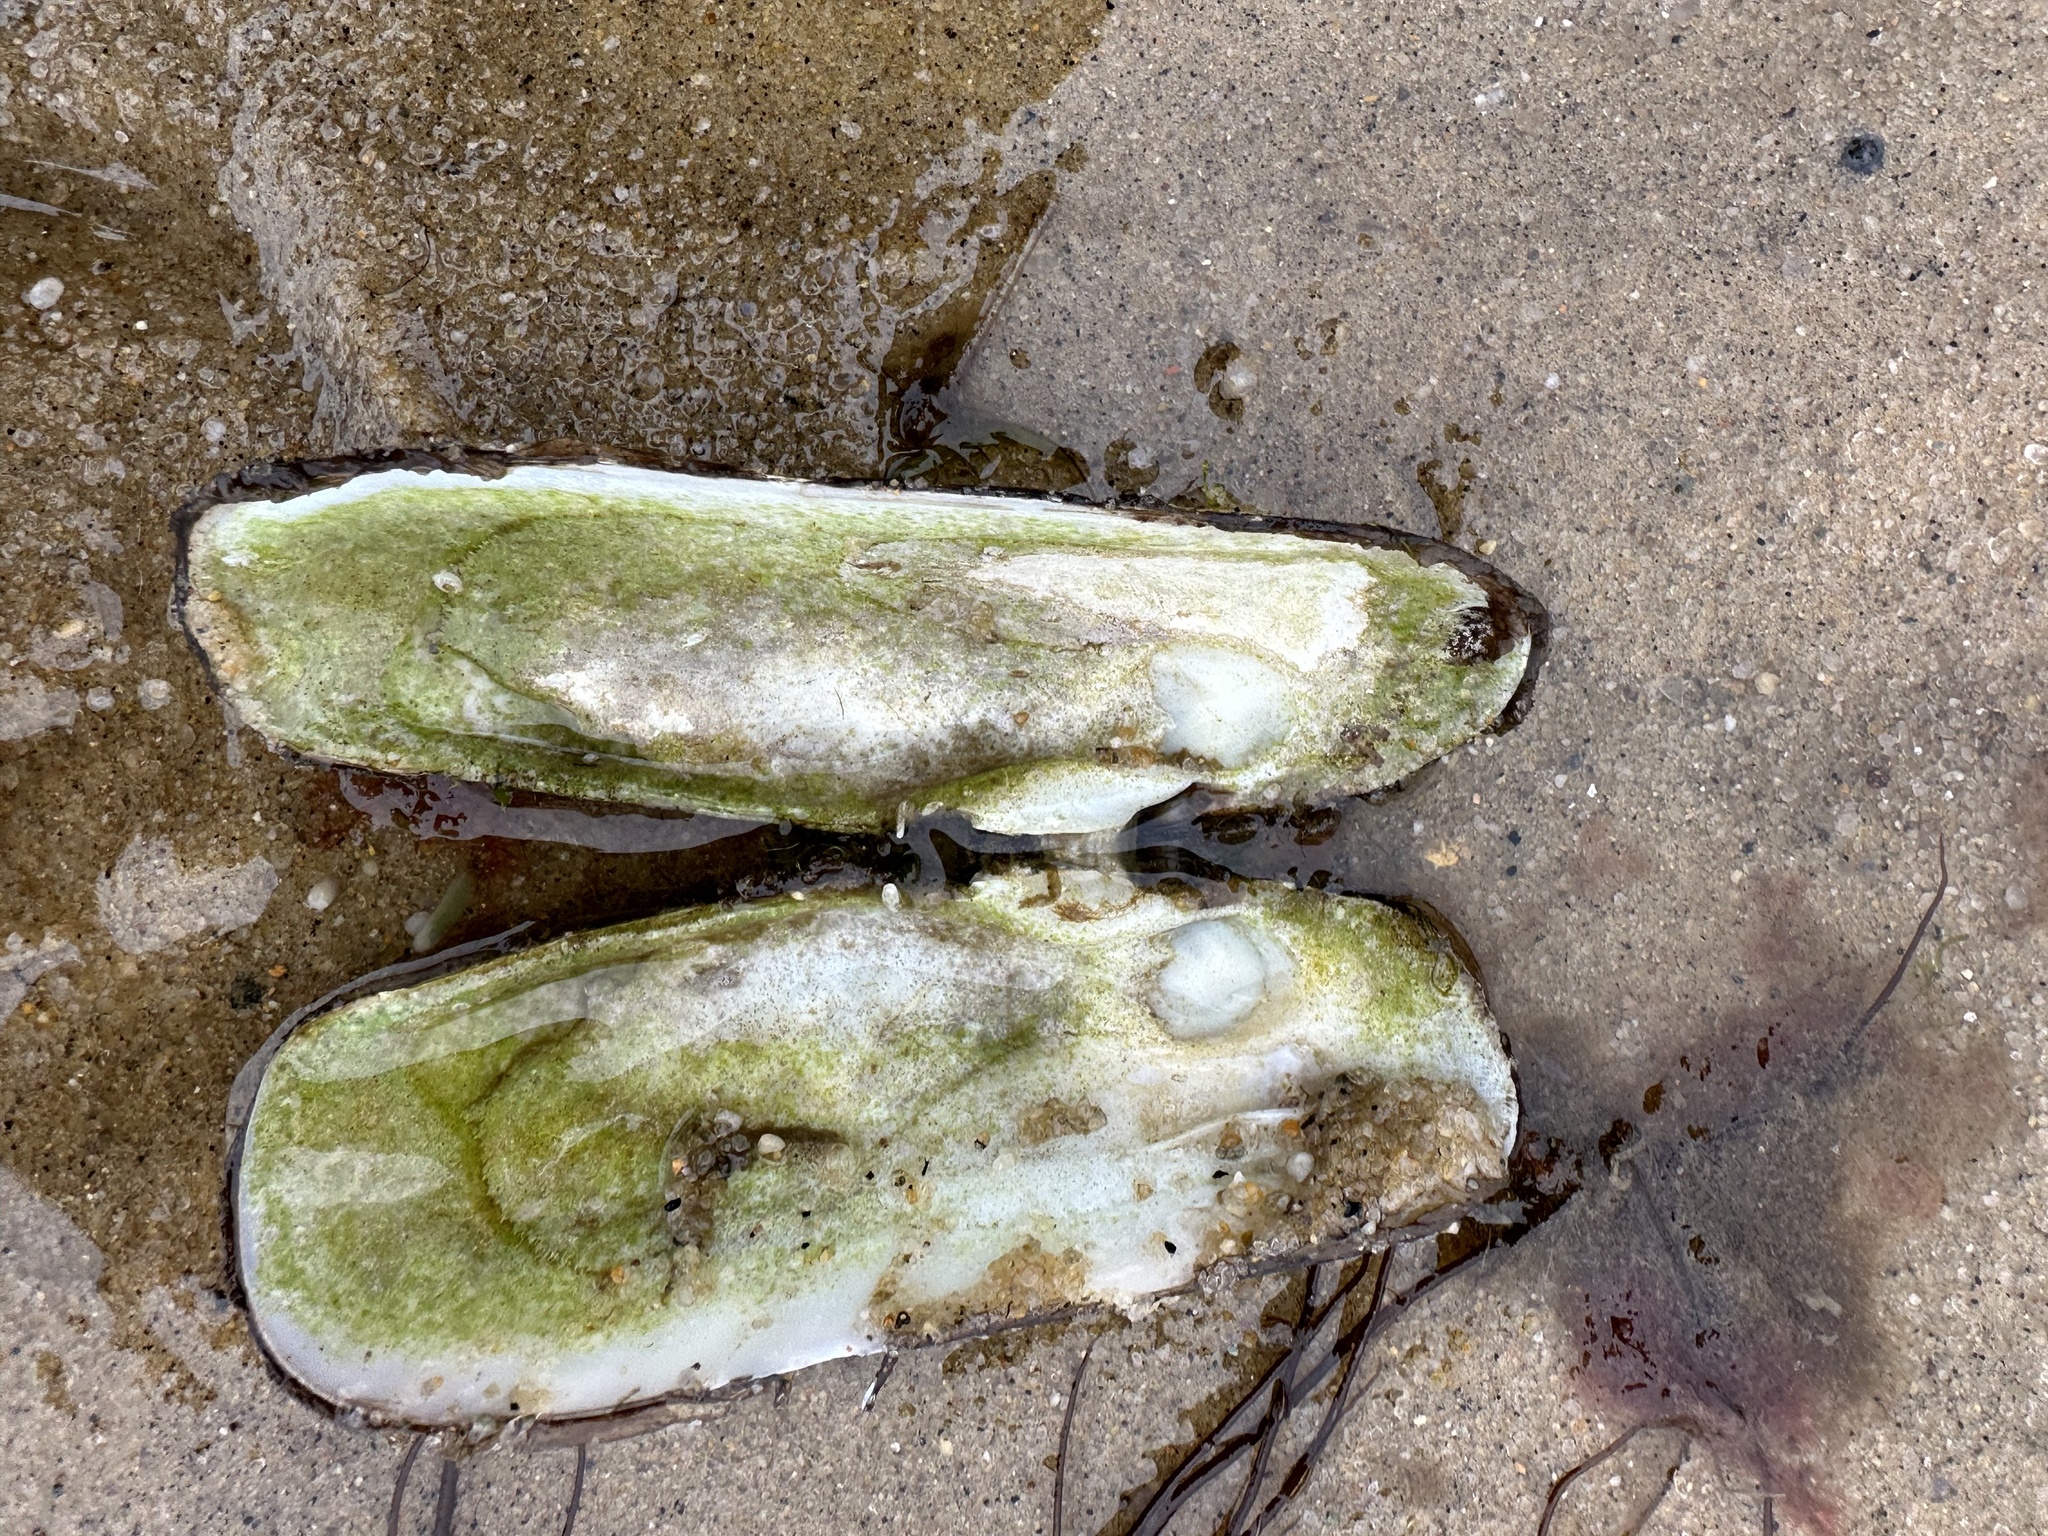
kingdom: Animalia
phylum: Mollusca
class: Bivalvia
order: Cardiida
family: Solecurtidae
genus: Tagelus
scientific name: Tagelus plebeius
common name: Stout tagelus
